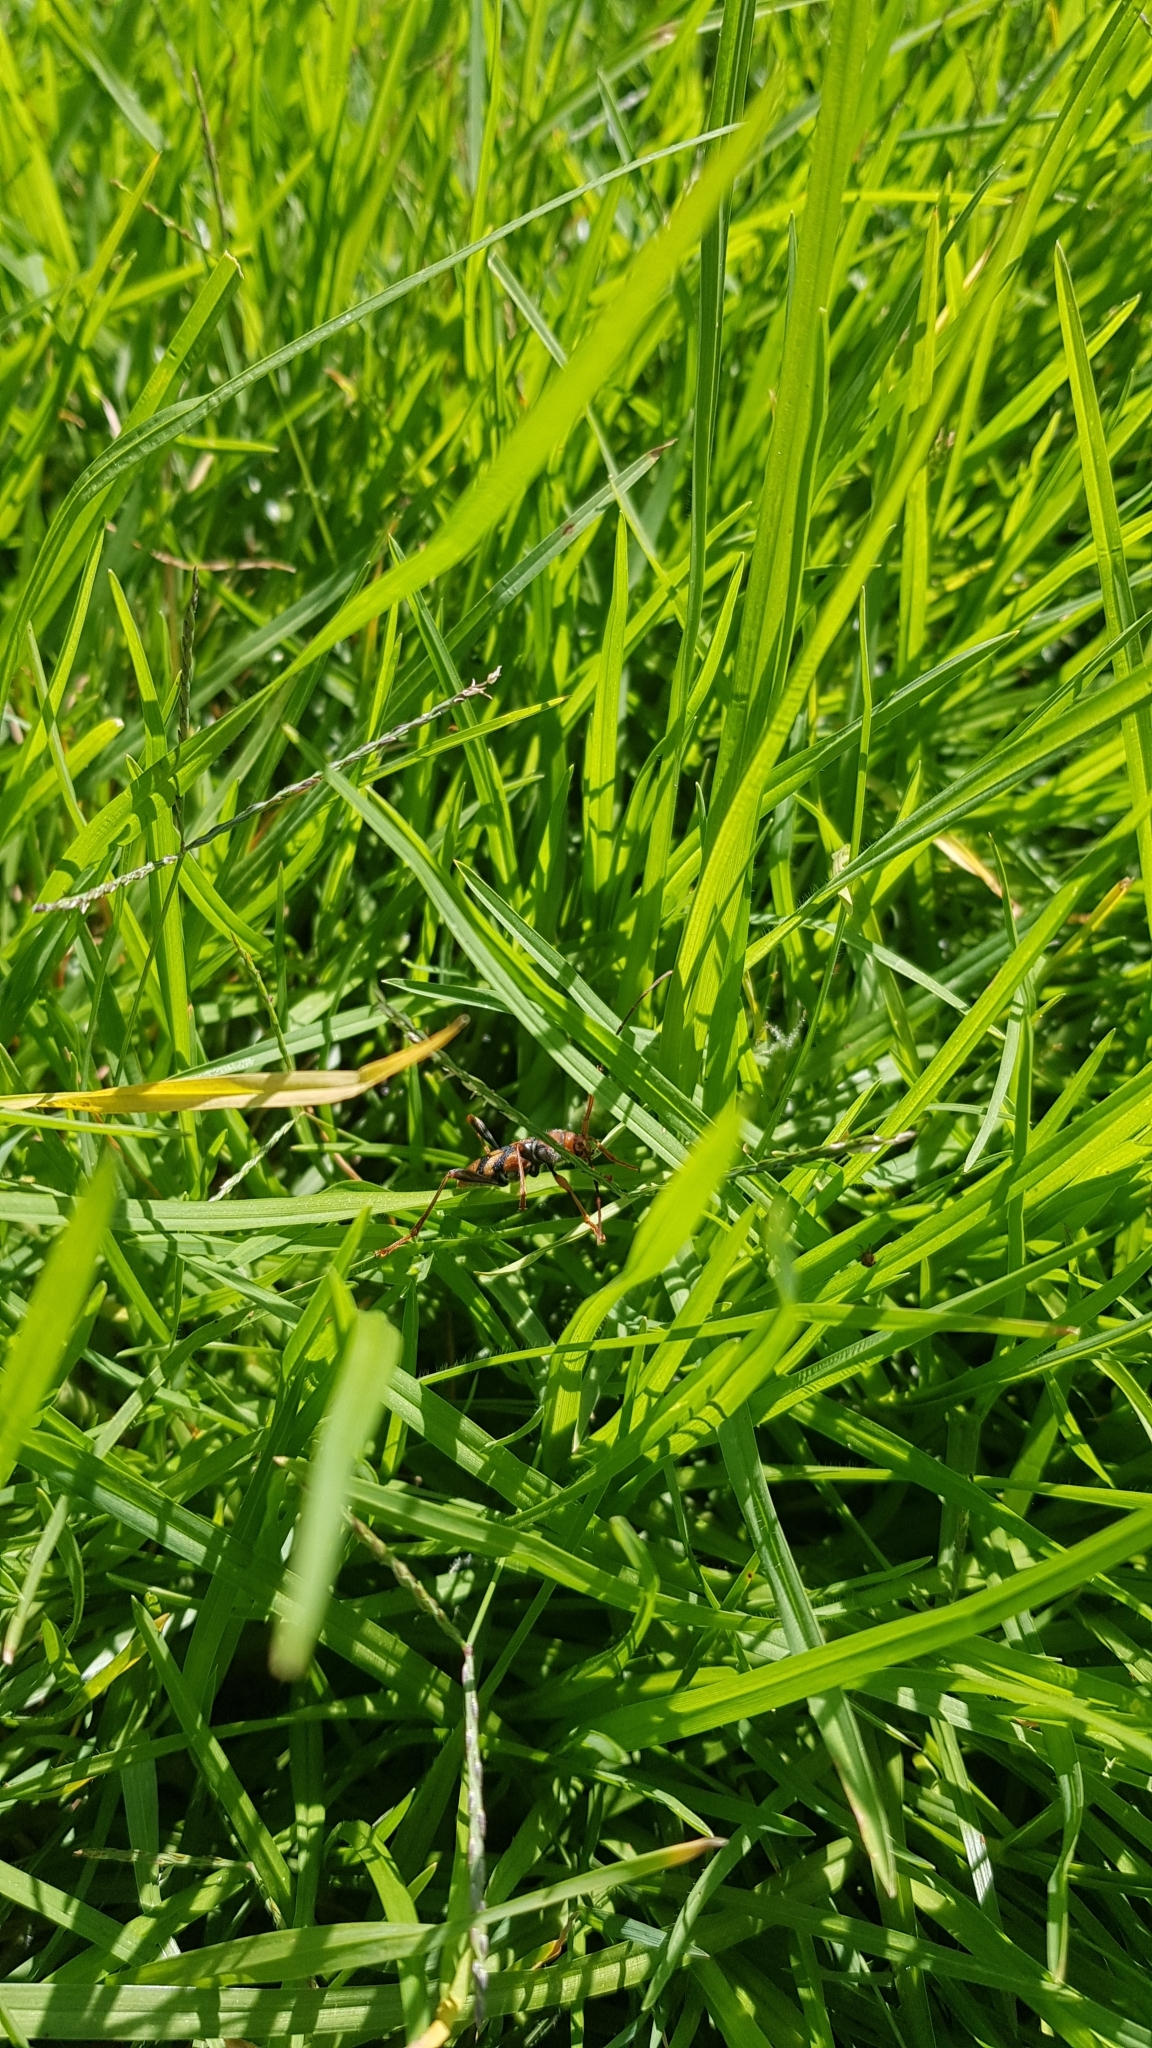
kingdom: Animalia
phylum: Arthropoda
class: Insecta
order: Coleoptera
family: Cerambycidae
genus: Aridaeus
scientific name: Aridaeus thoracicus
